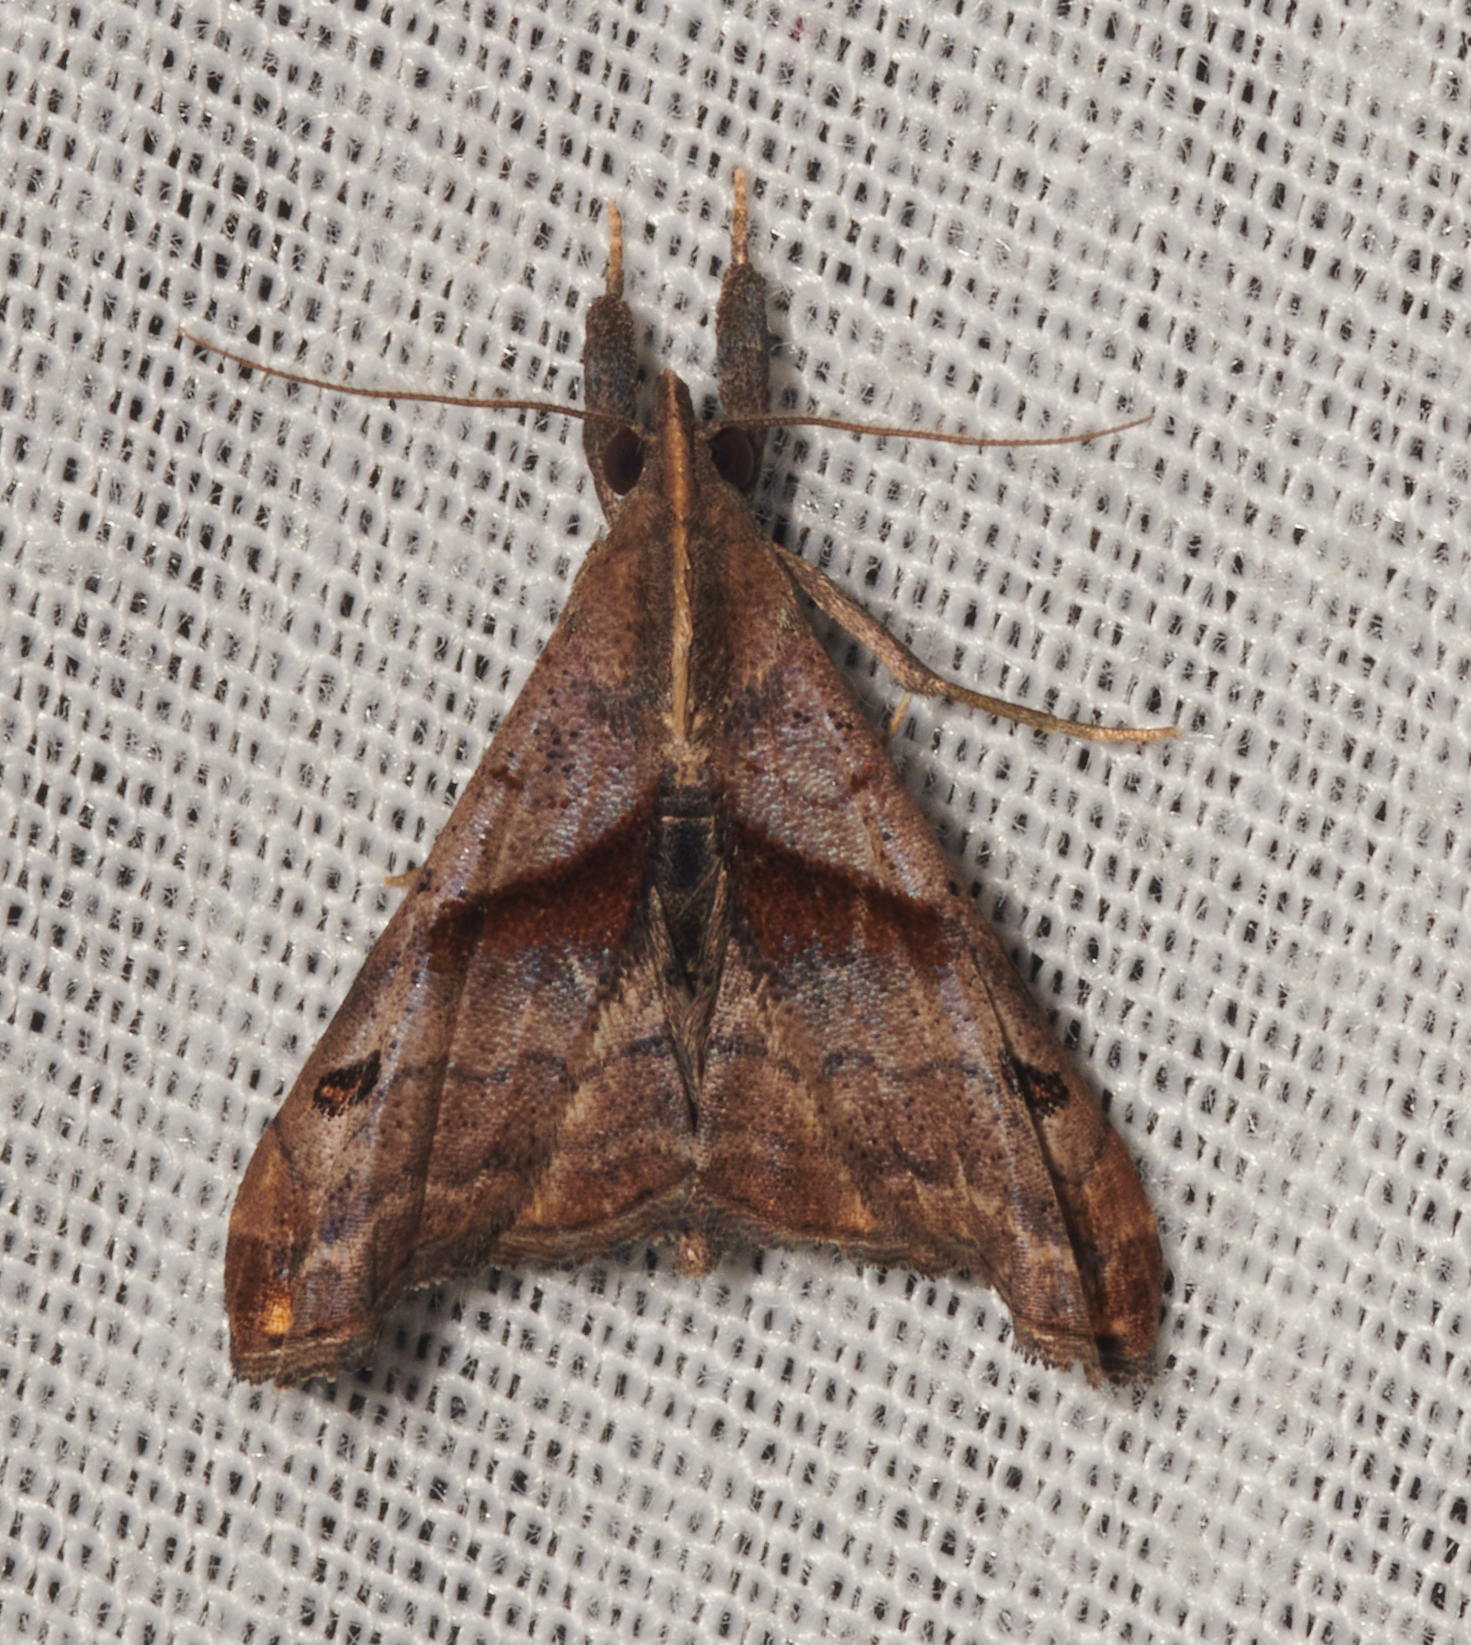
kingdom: Animalia
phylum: Arthropoda
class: Insecta
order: Lepidoptera
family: Erebidae
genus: Palthis
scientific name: Palthis angulalis
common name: Dark-spotted palthis moth
